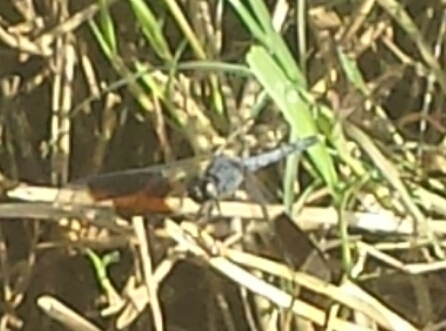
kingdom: Animalia
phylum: Arthropoda
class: Insecta
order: Odonata
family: Libellulidae
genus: Erythrodiplax
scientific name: Erythrodiplax umbrata
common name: Band-winged dragonlet
